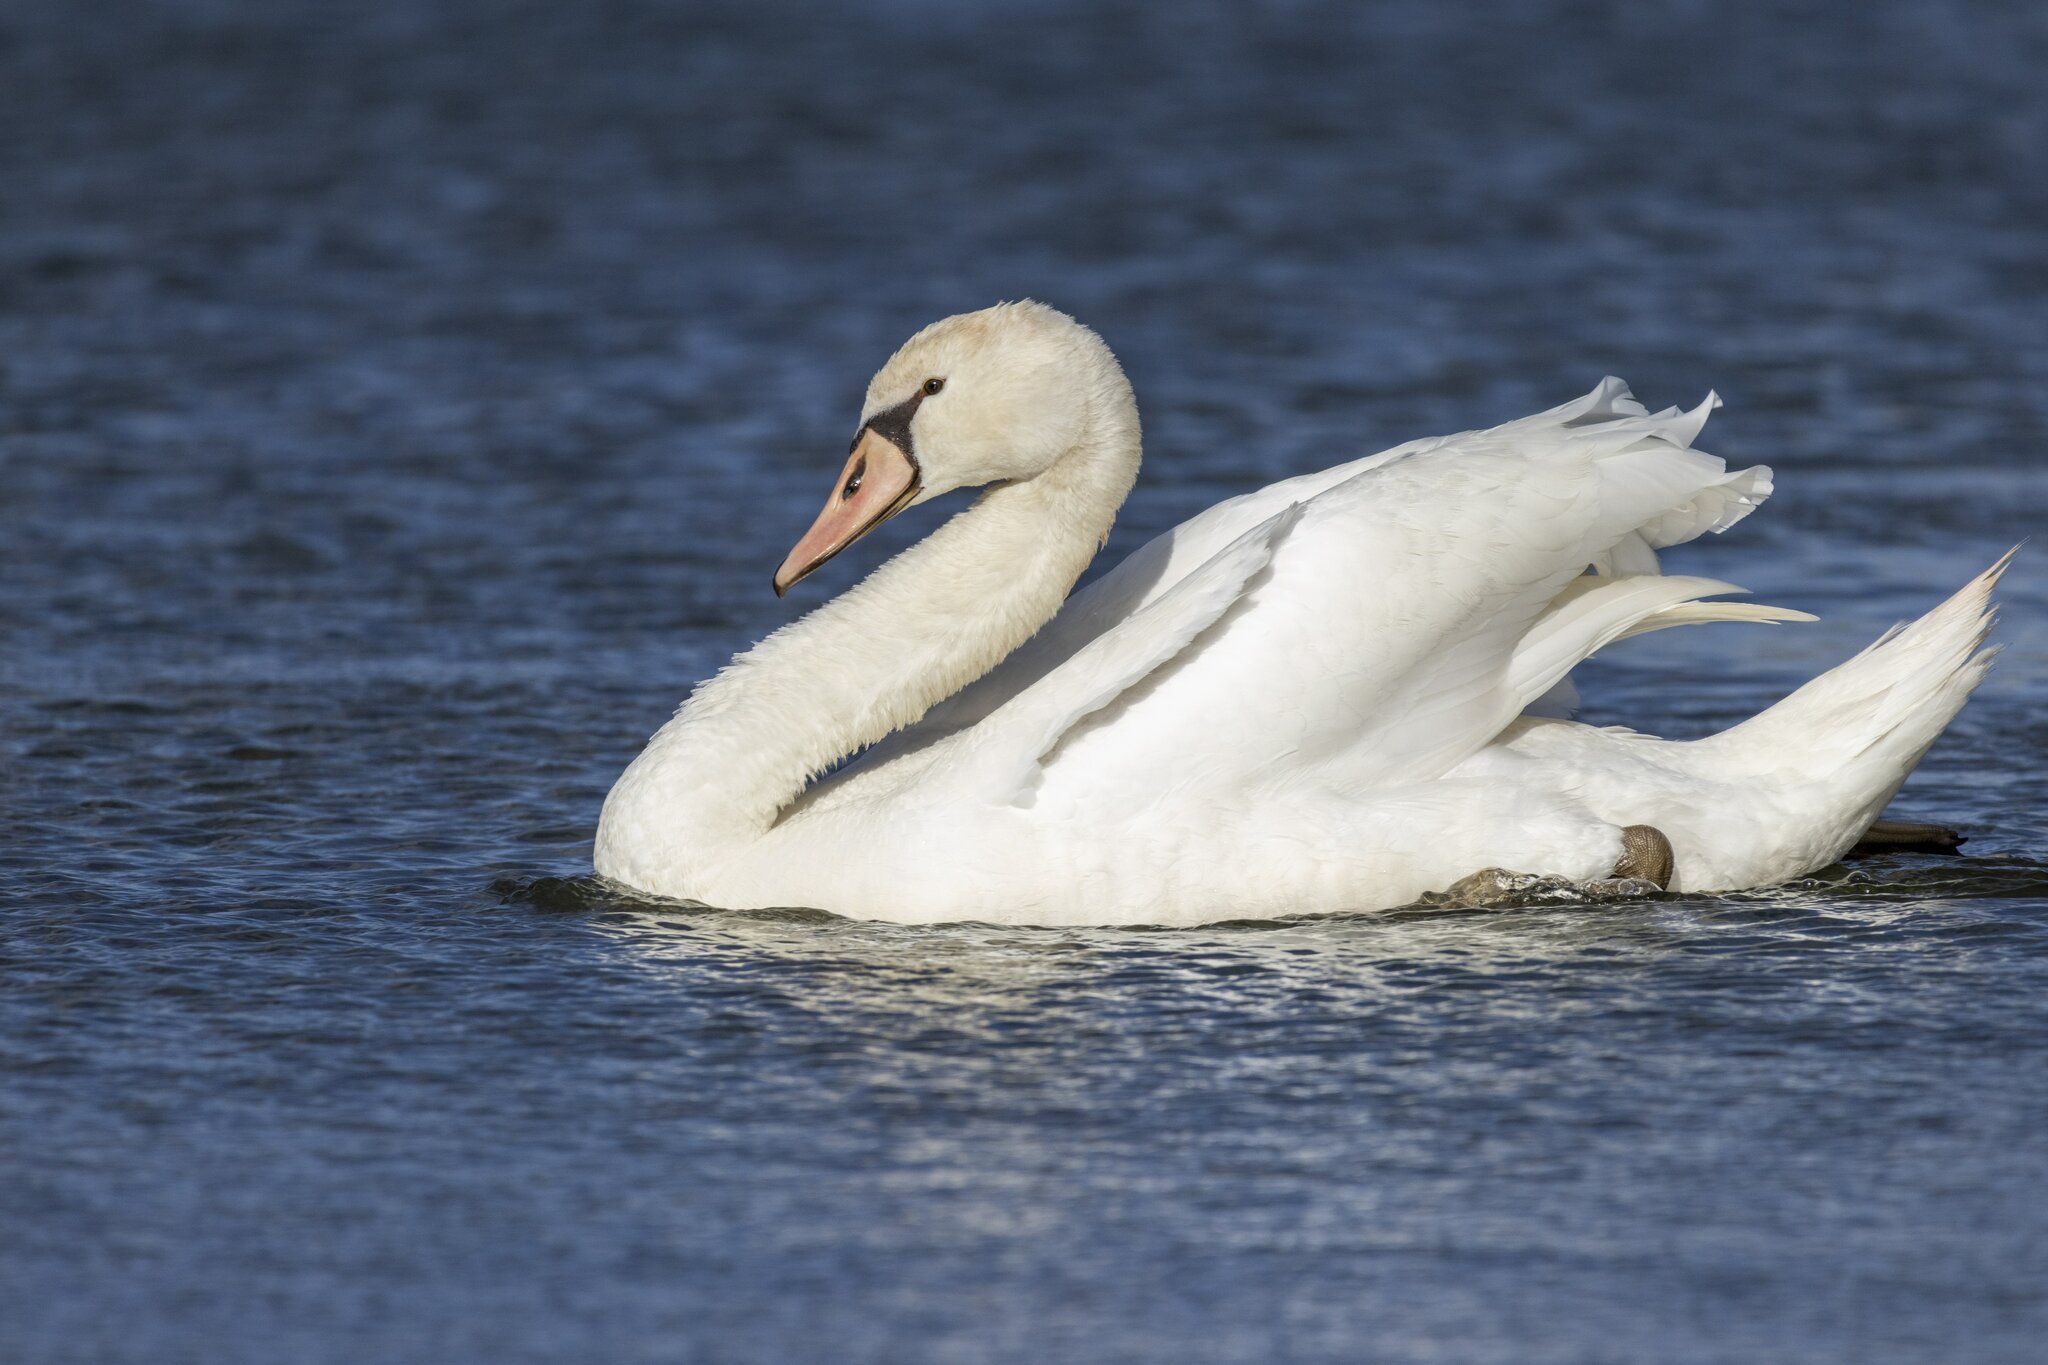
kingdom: Animalia
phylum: Chordata
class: Aves
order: Anseriformes
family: Anatidae
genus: Cygnus
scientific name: Cygnus olor
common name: Mute swan
